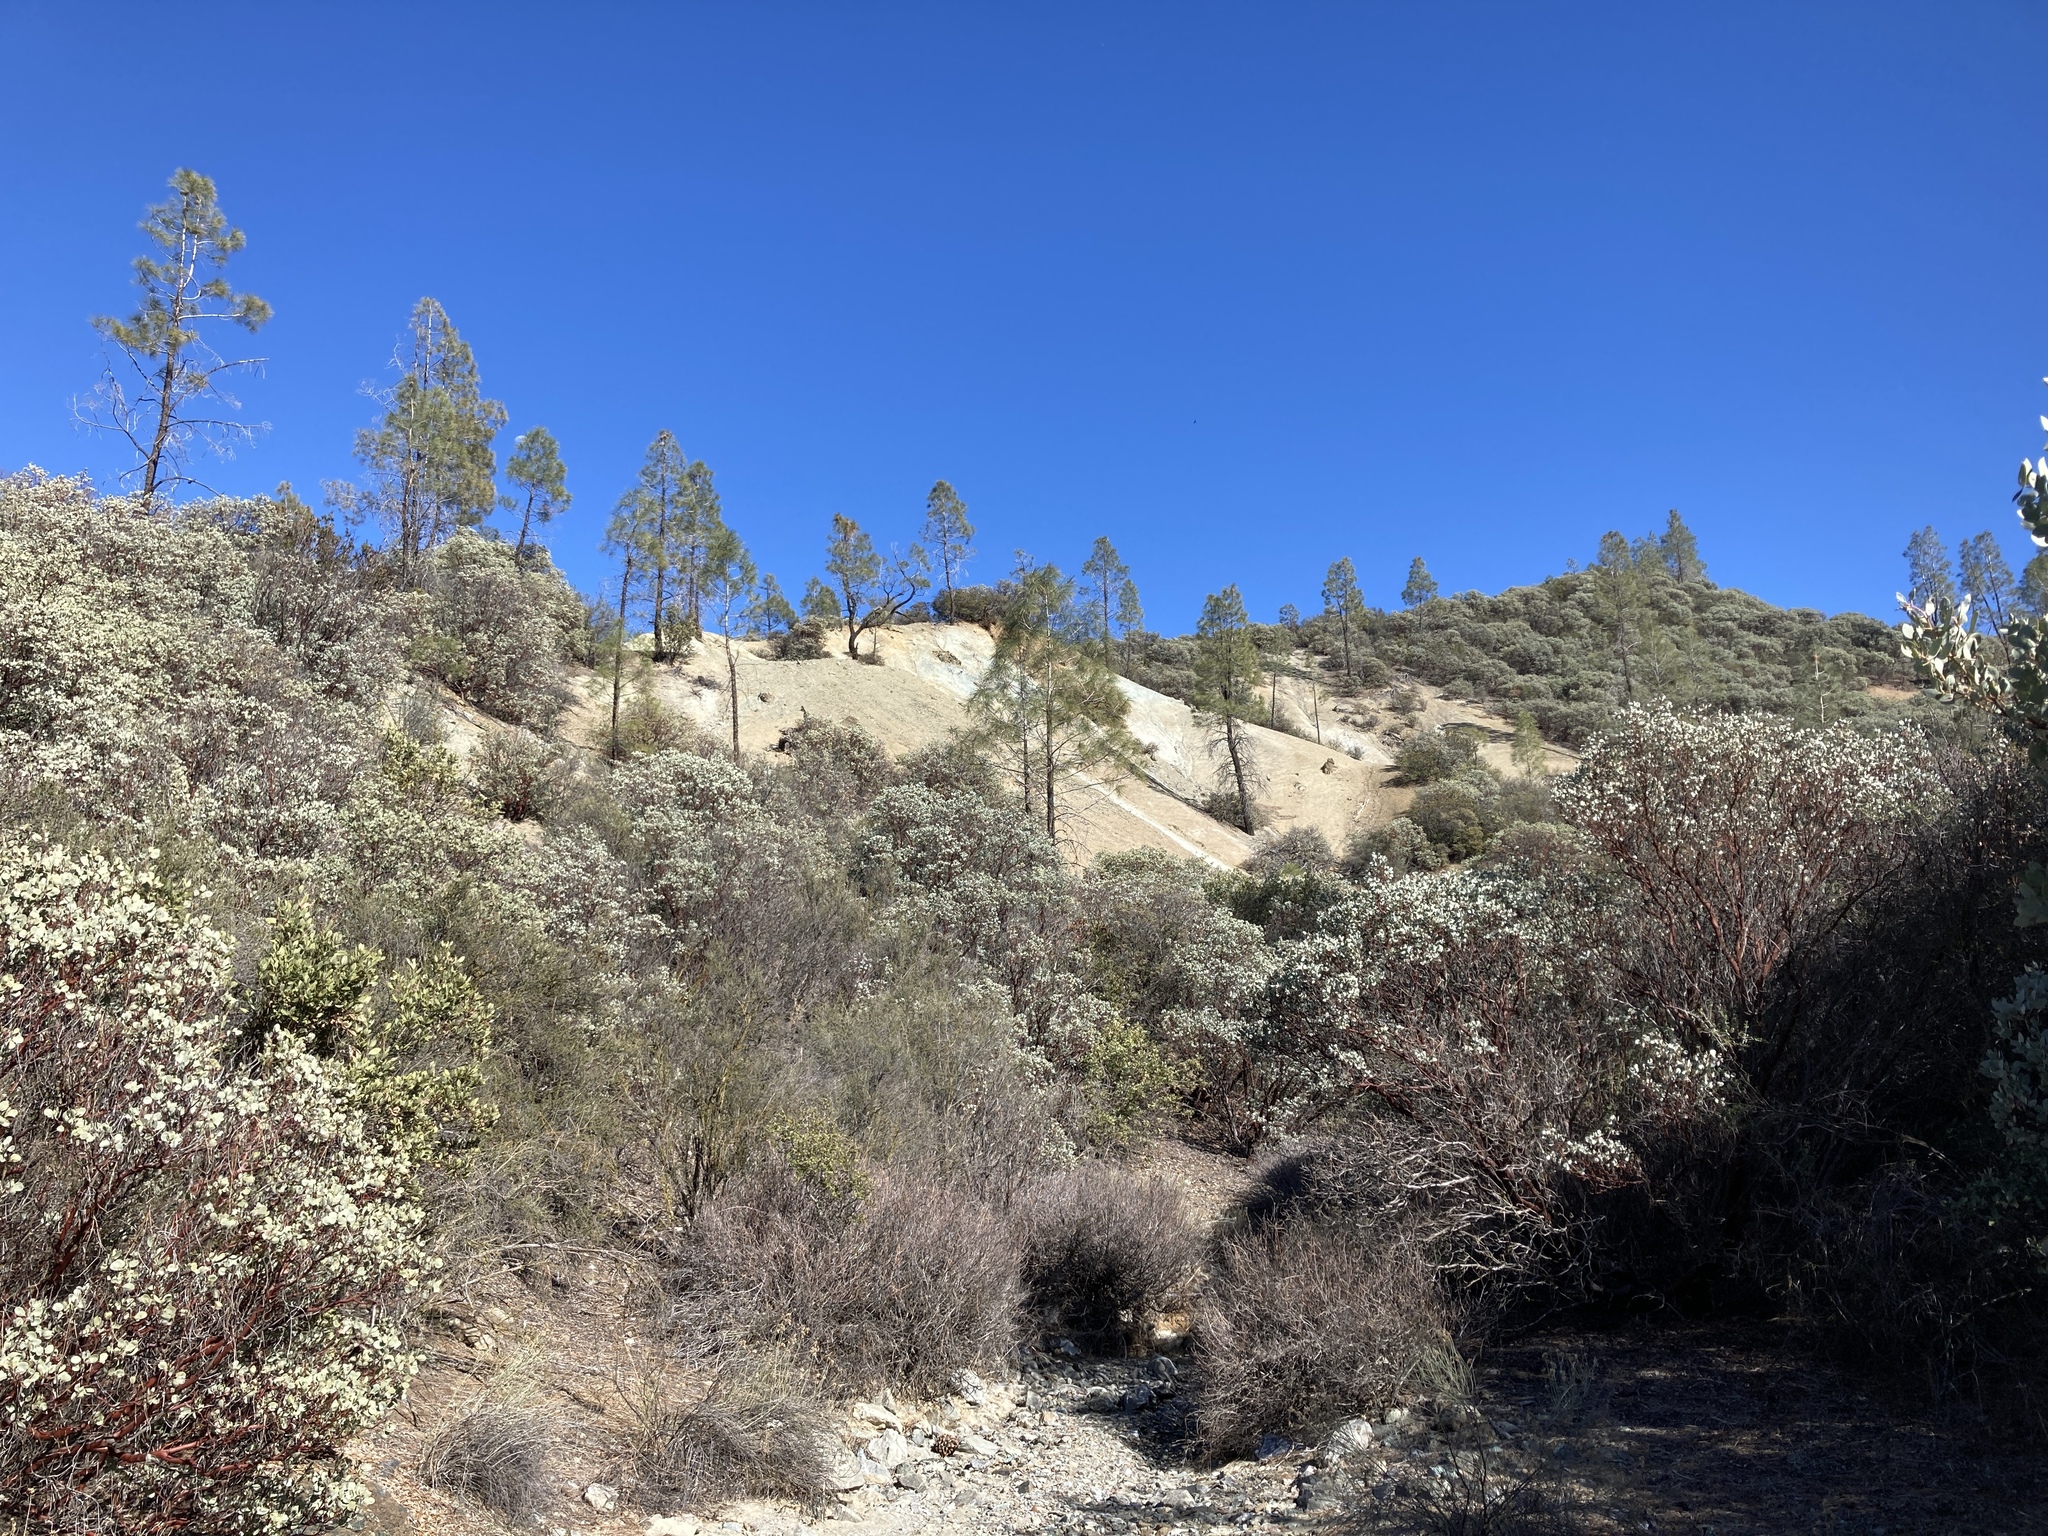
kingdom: Plantae
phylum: Tracheophyta
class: Magnoliopsida
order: Ericales
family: Ericaceae
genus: Arctostaphylos
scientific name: Arctostaphylos glauca
